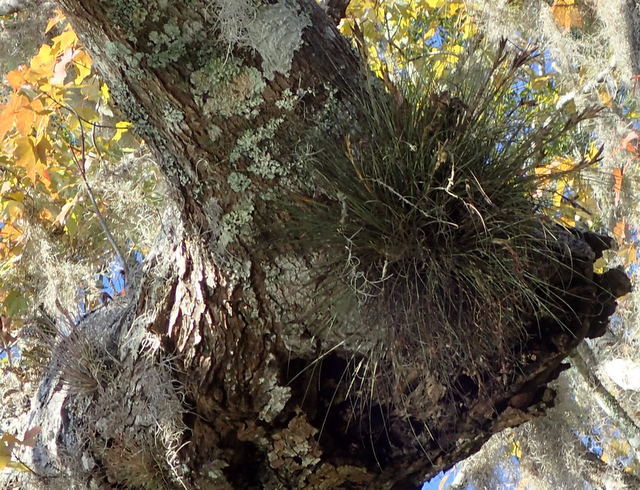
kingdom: Plantae
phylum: Tracheophyta
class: Liliopsida
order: Poales
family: Bromeliaceae
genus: Tillandsia
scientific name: Tillandsia bartramii
